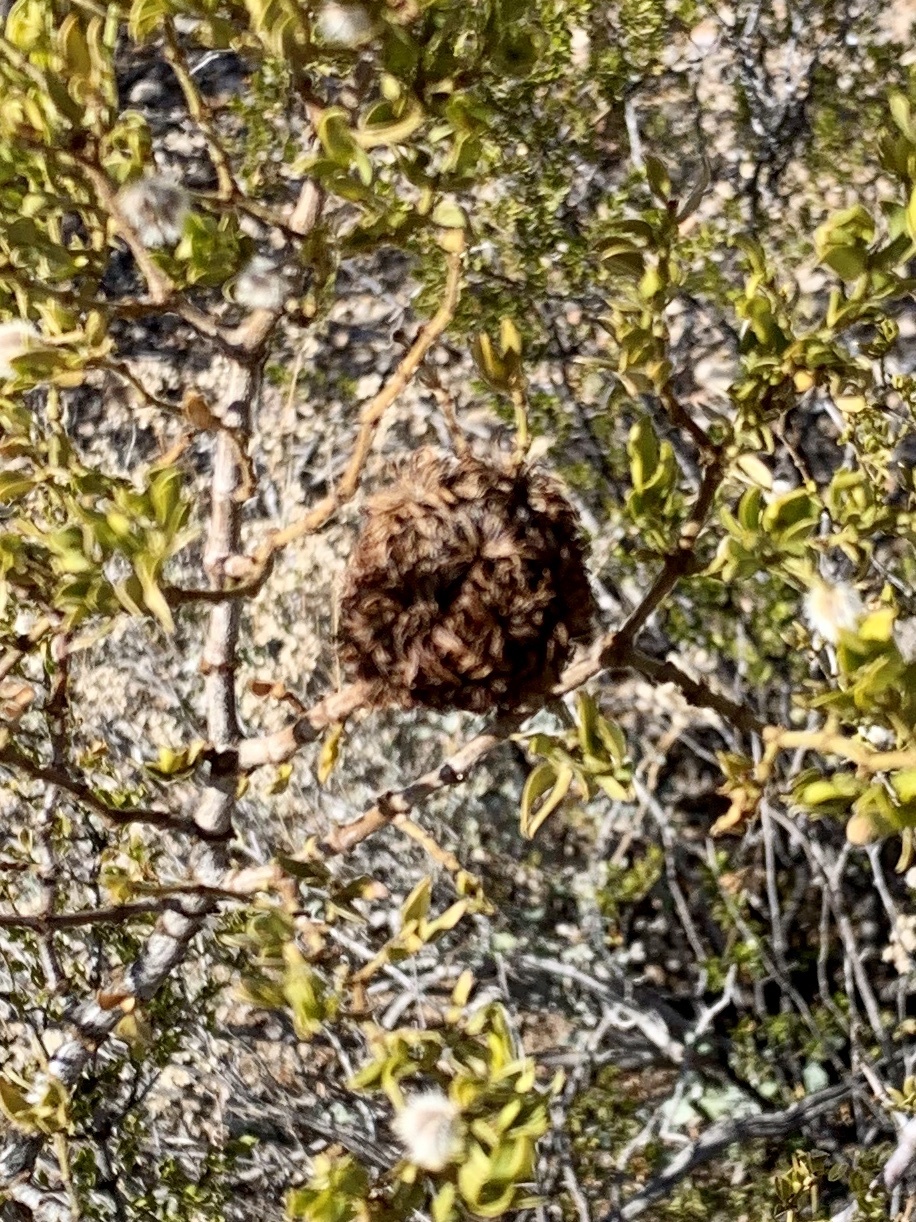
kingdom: Animalia
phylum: Arthropoda
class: Insecta
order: Diptera
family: Cecidomyiidae
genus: Asphondylia
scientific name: Asphondylia auripila
